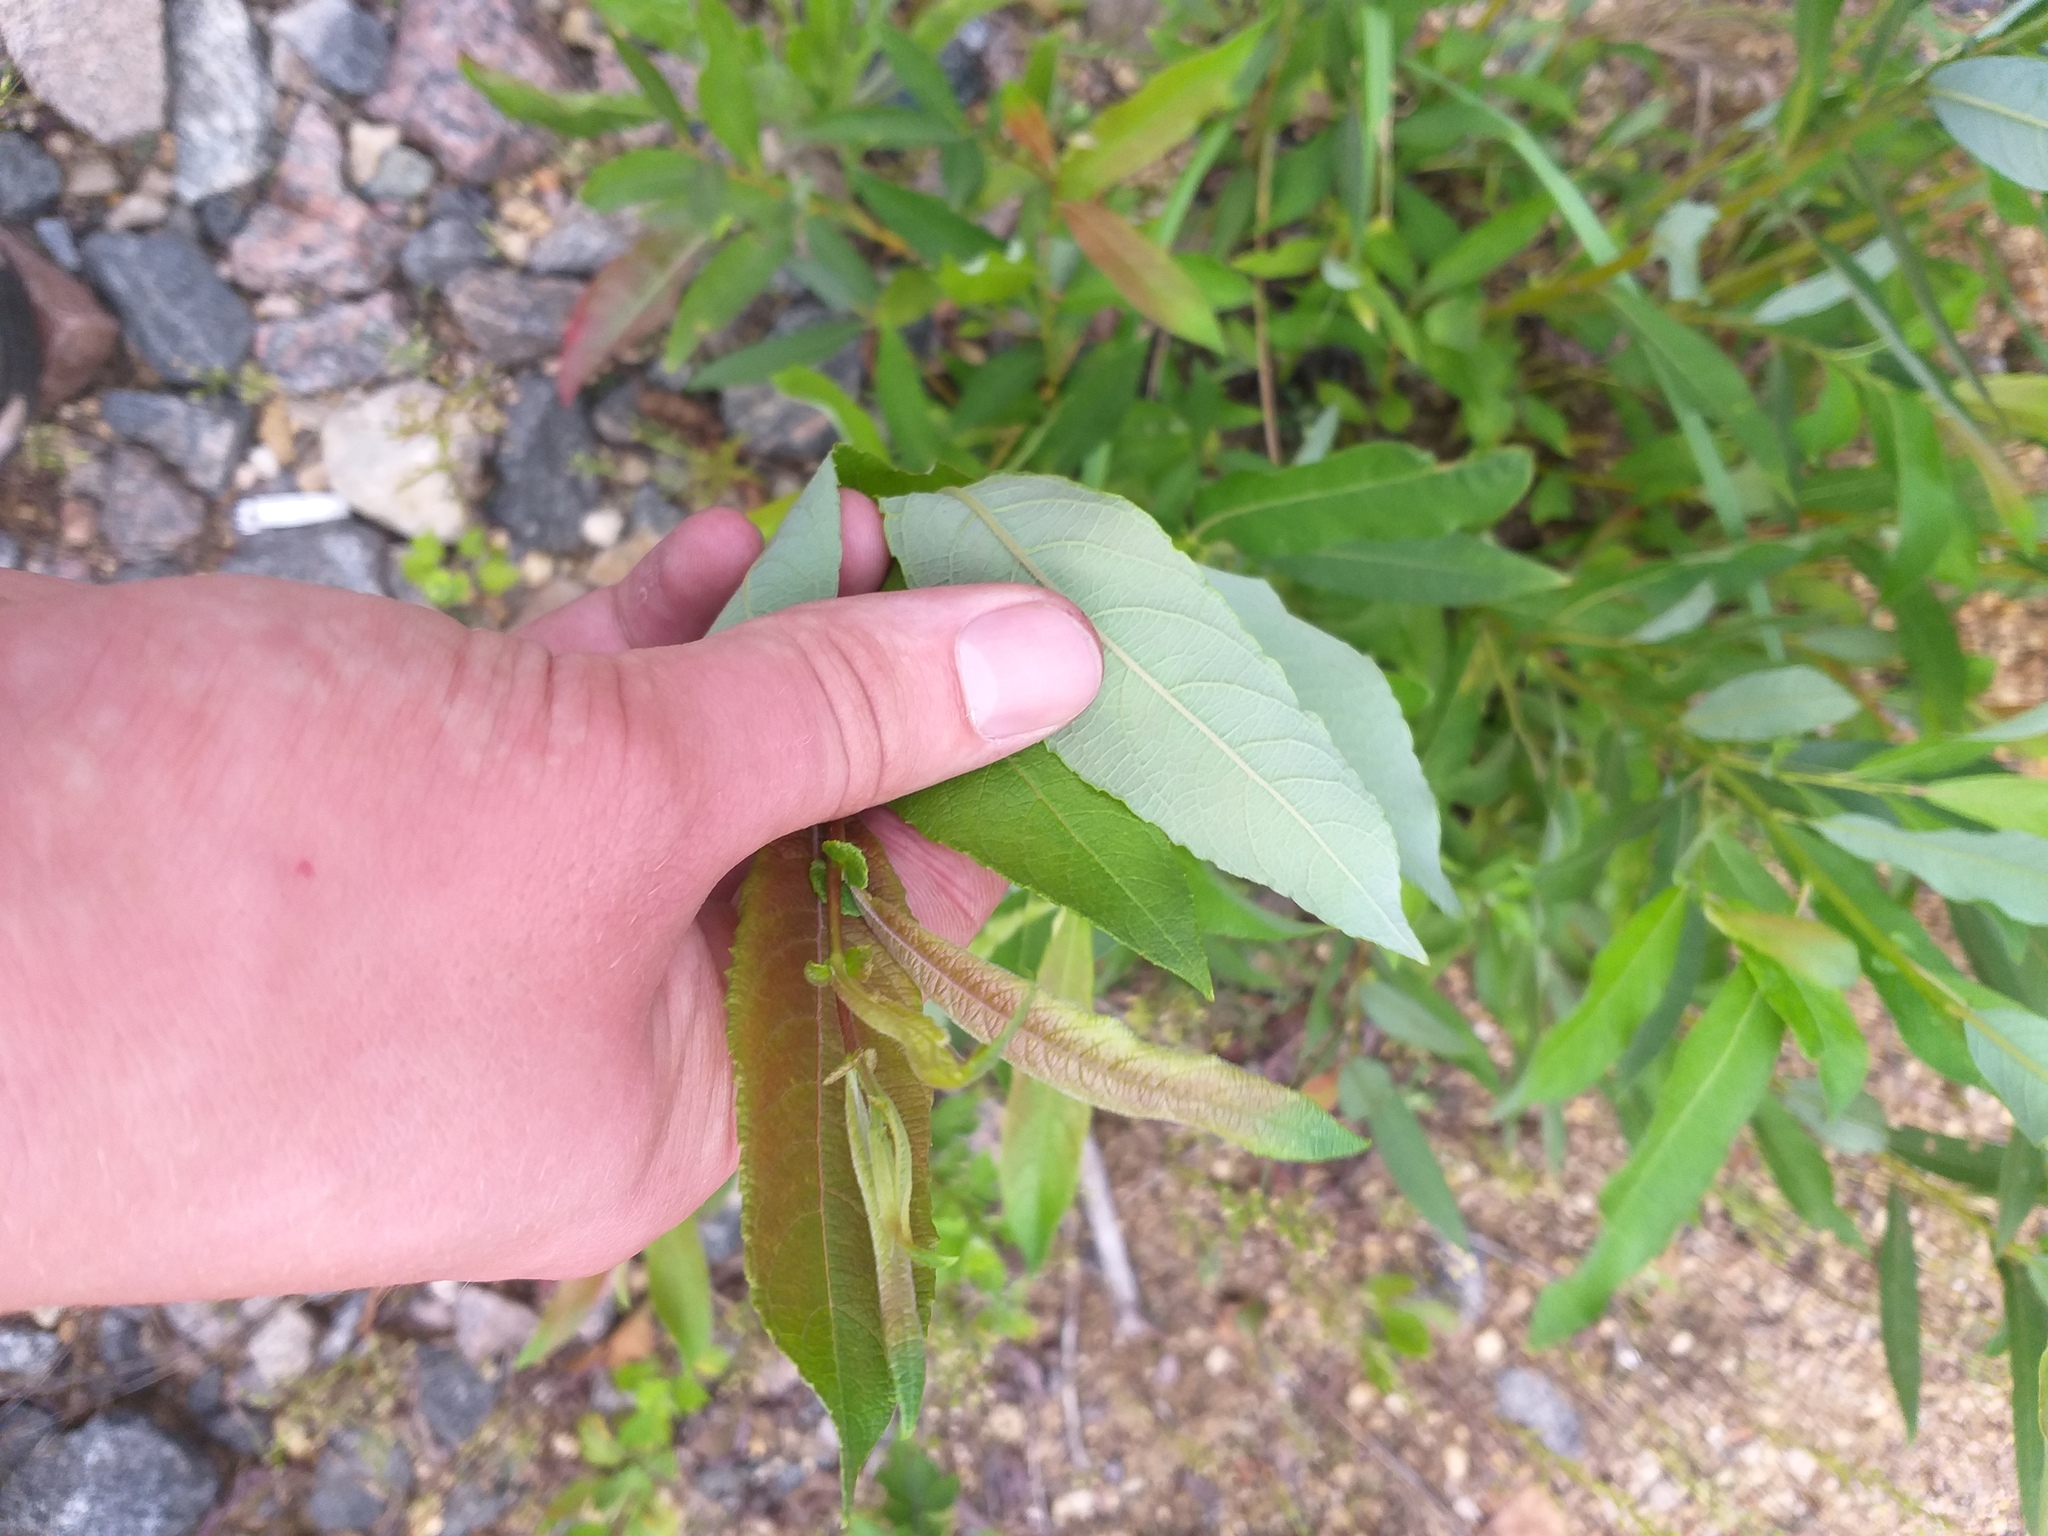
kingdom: Plantae
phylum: Tracheophyta
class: Magnoliopsida
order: Malpighiales
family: Salicaceae
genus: Salix
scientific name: Salix cinerea
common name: Common sallow
